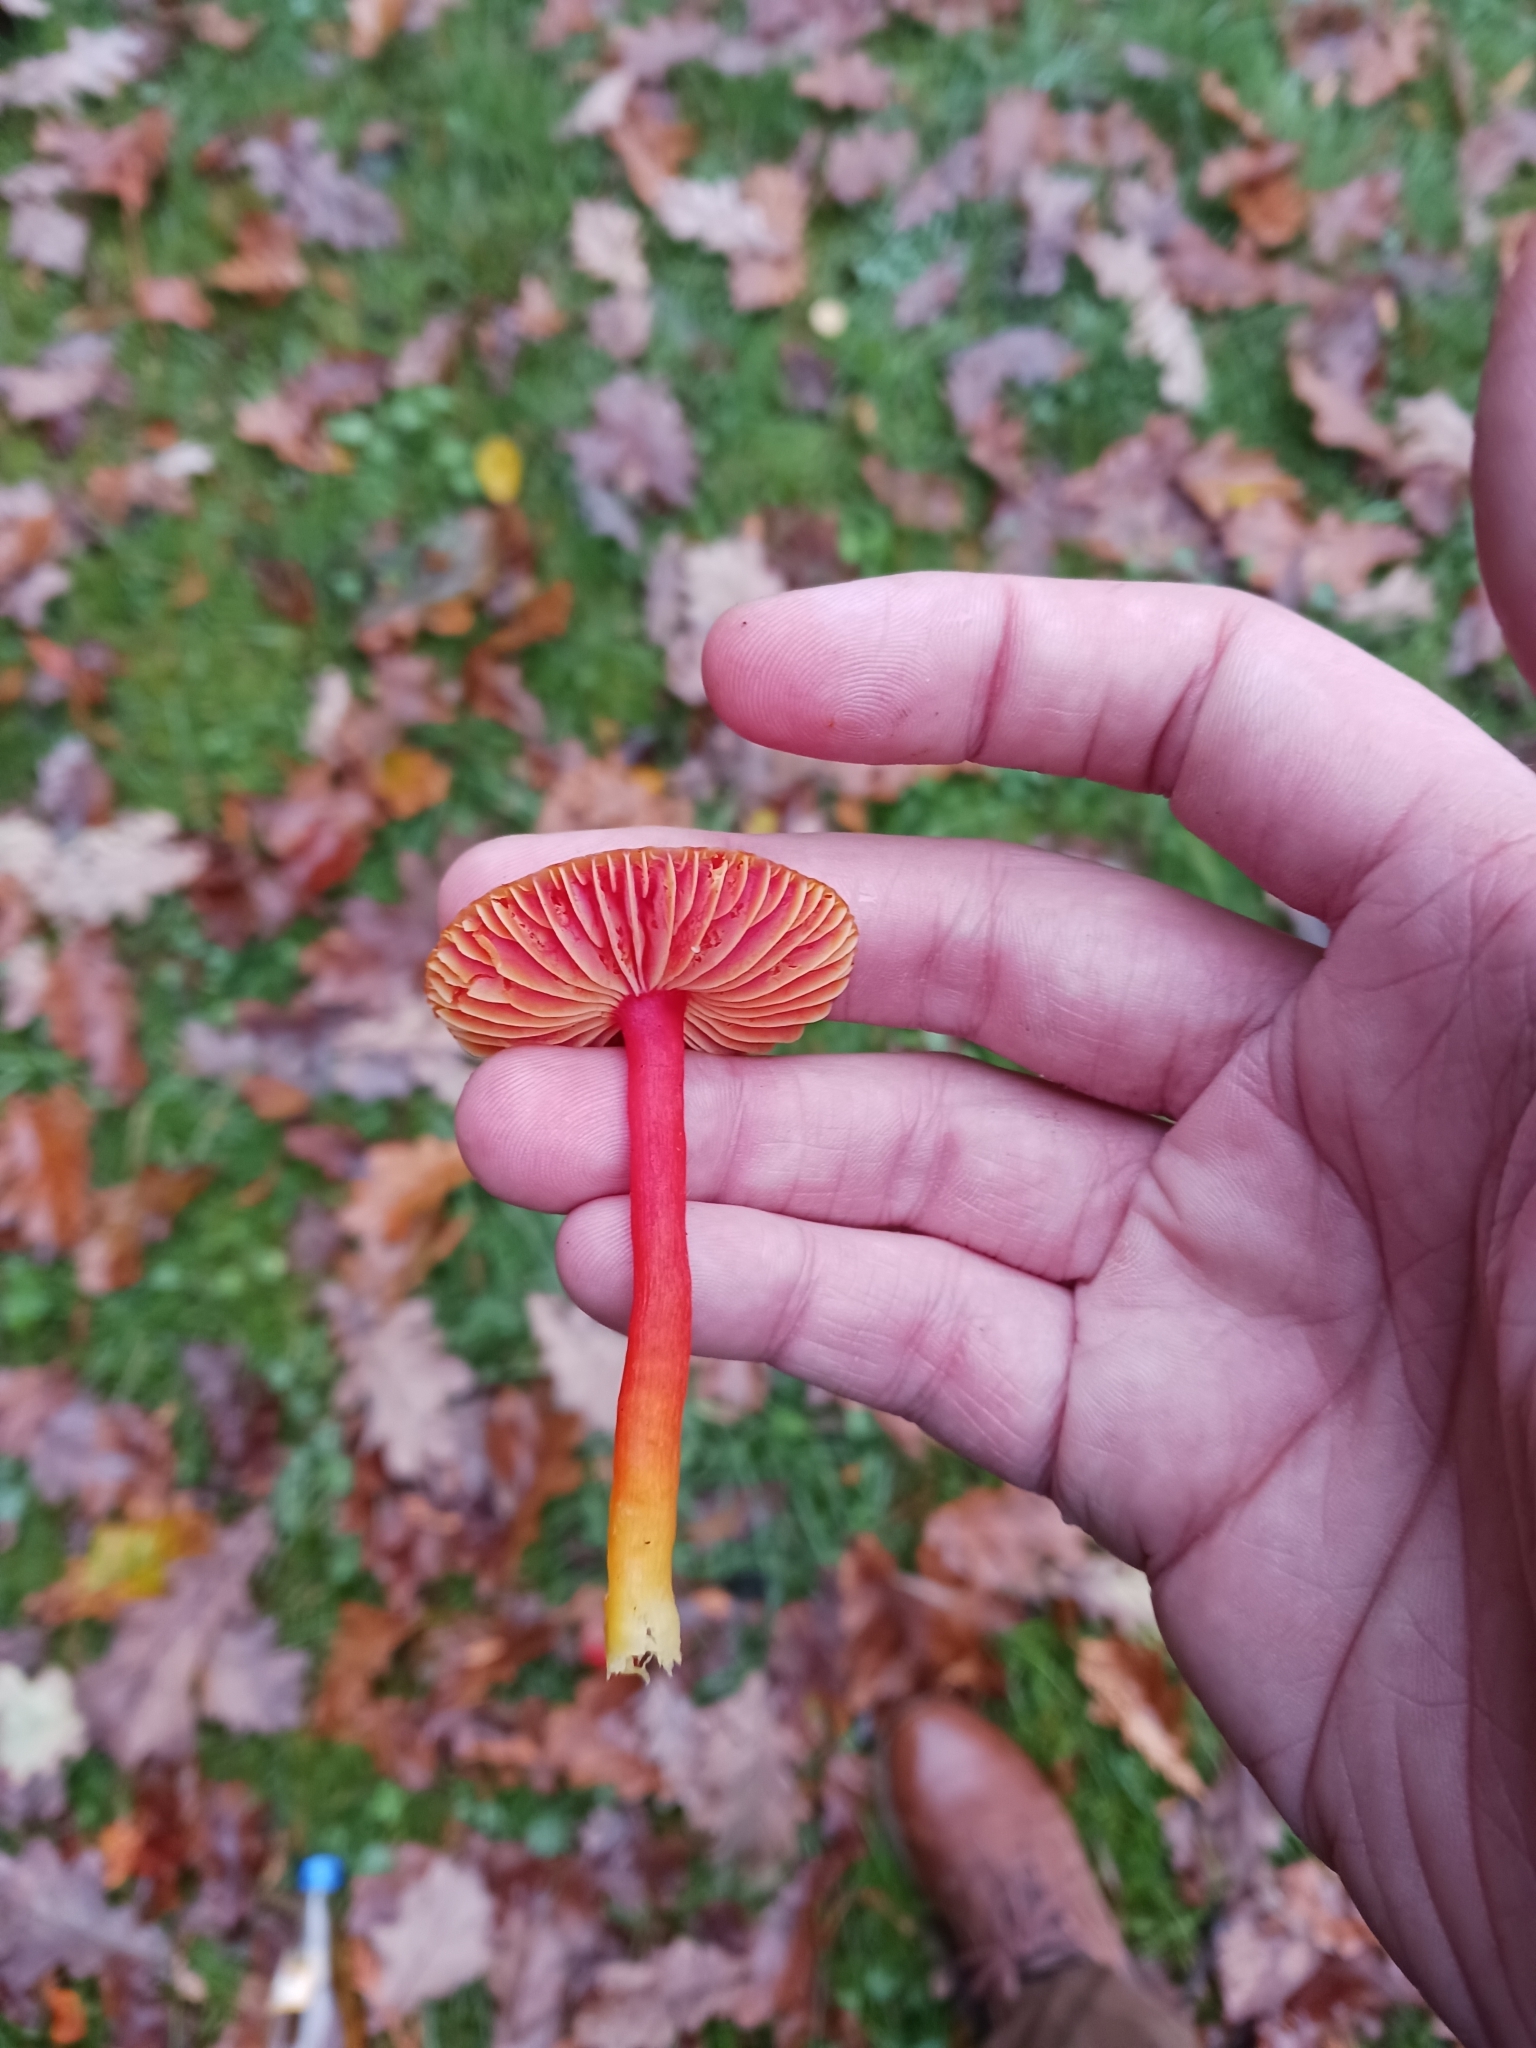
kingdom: Fungi
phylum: Basidiomycota
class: Agaricomycetes
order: Agaricales
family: Hygrophoraceae
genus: Hygrocybe
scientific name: Hygrocybe coccinea
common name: Scarlet hood
